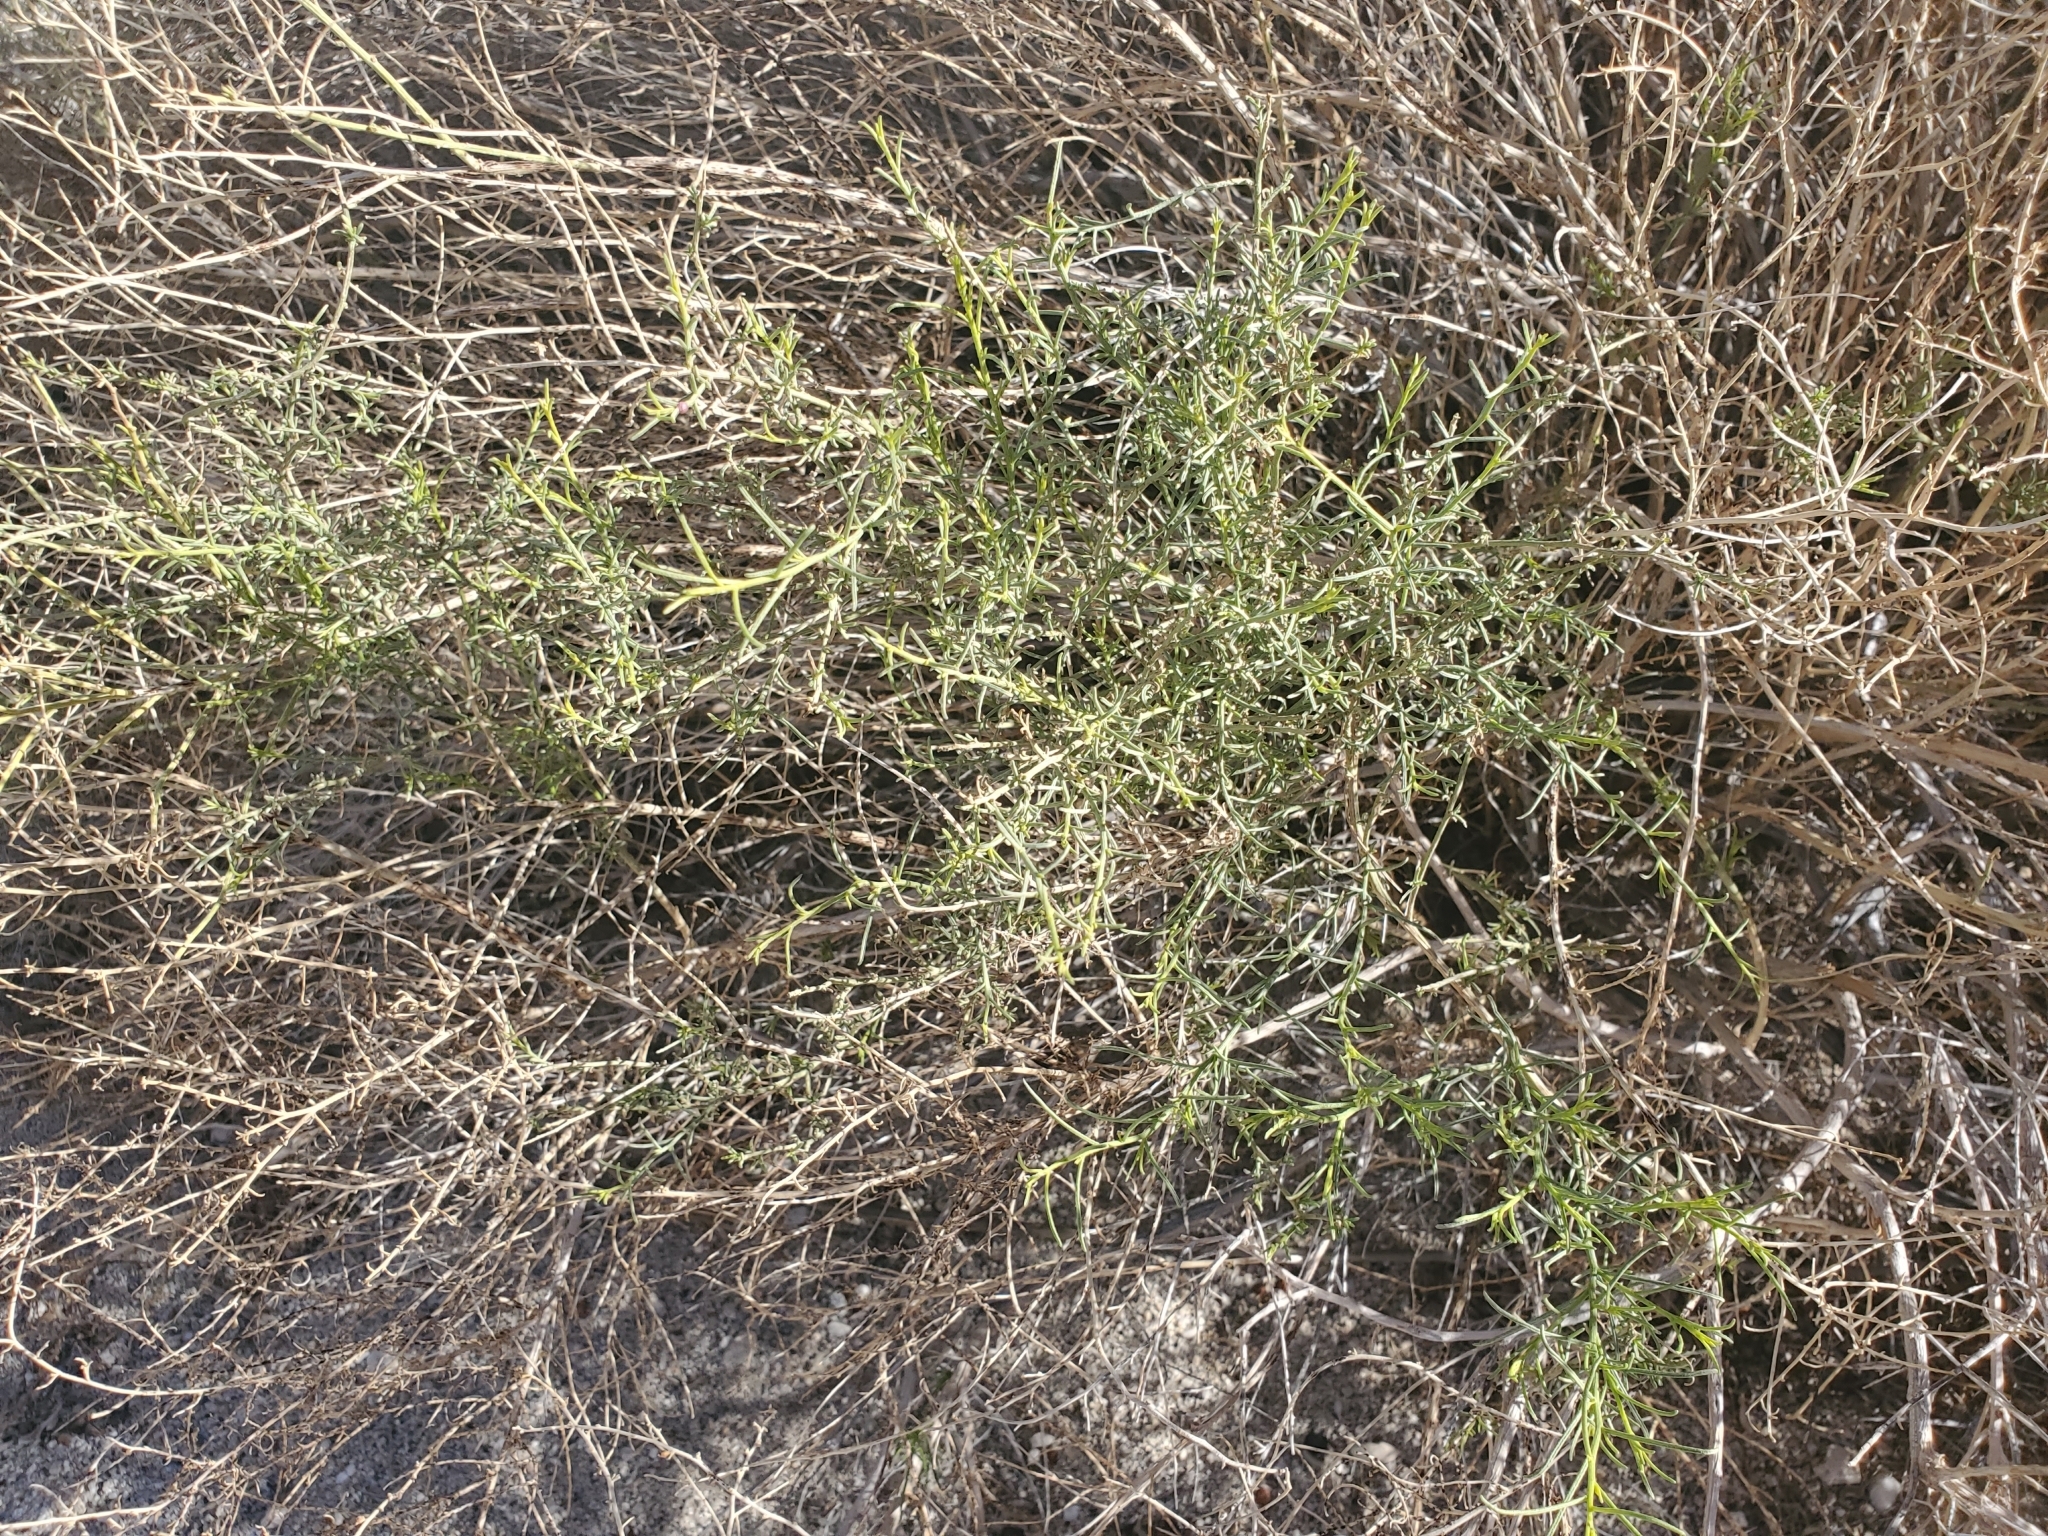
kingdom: Plantae
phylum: Tracheophyta
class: Magnoliopsida
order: Asterales
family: Asteraceae
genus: Ambrosia
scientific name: Ambrosia salsola
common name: Burrobrush
